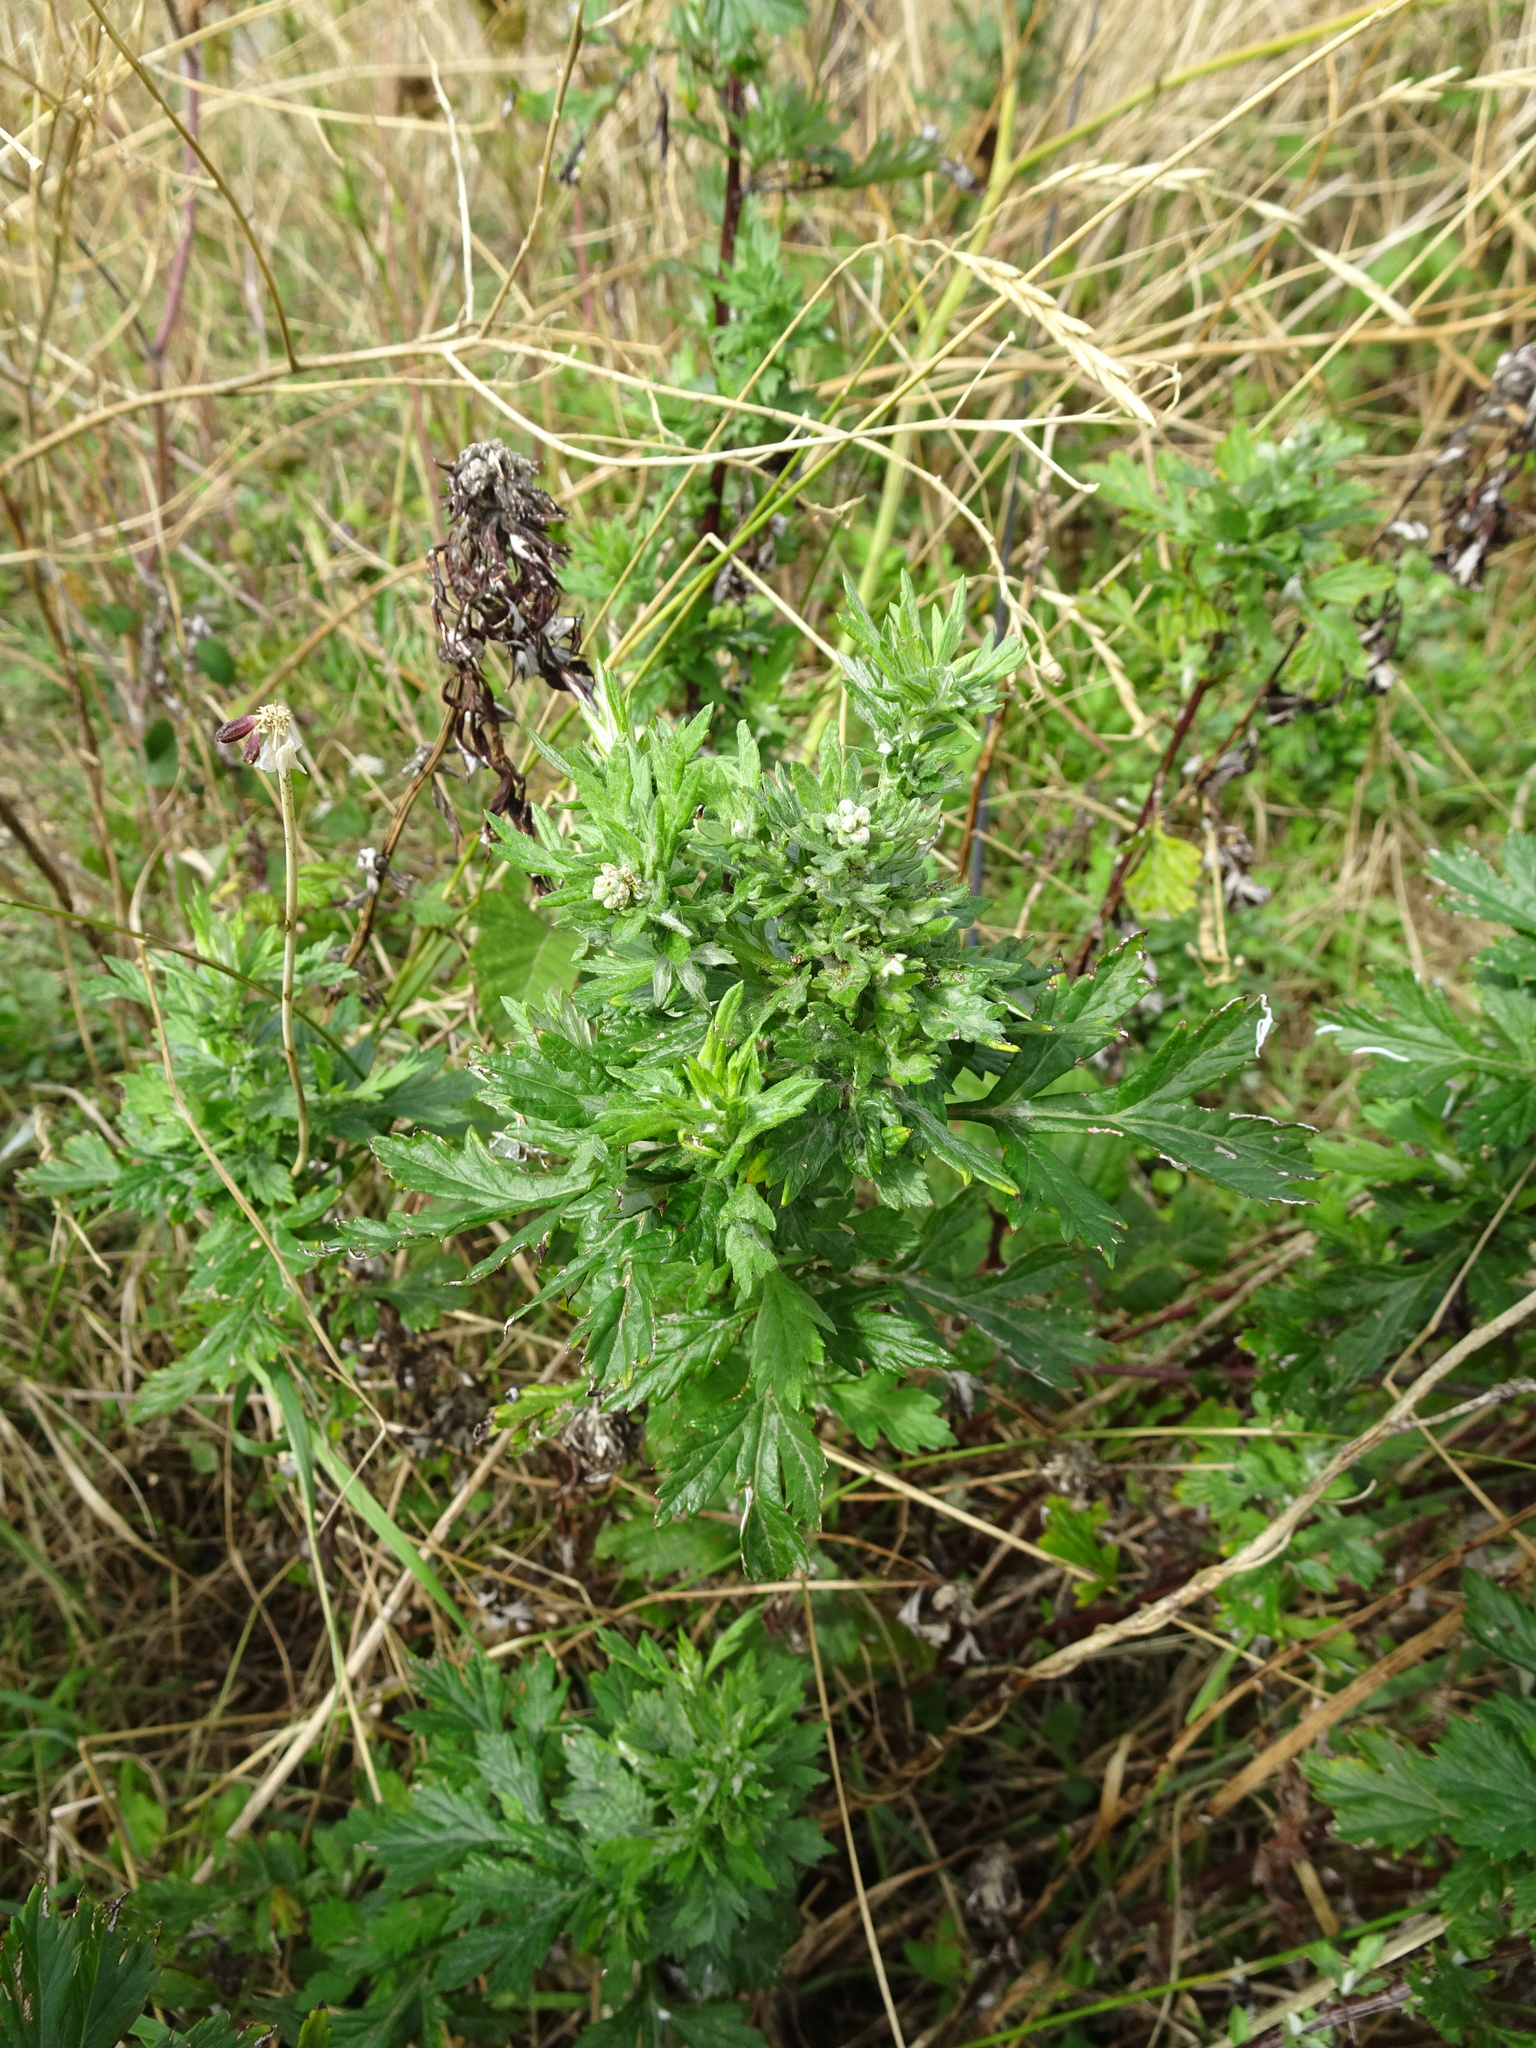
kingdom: Plantae
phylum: Tracheophyta
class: Magnoliopsida
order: Asterales
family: Asteraceae
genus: Artemisia
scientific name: Artemisia vulgaris
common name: Mugwort
